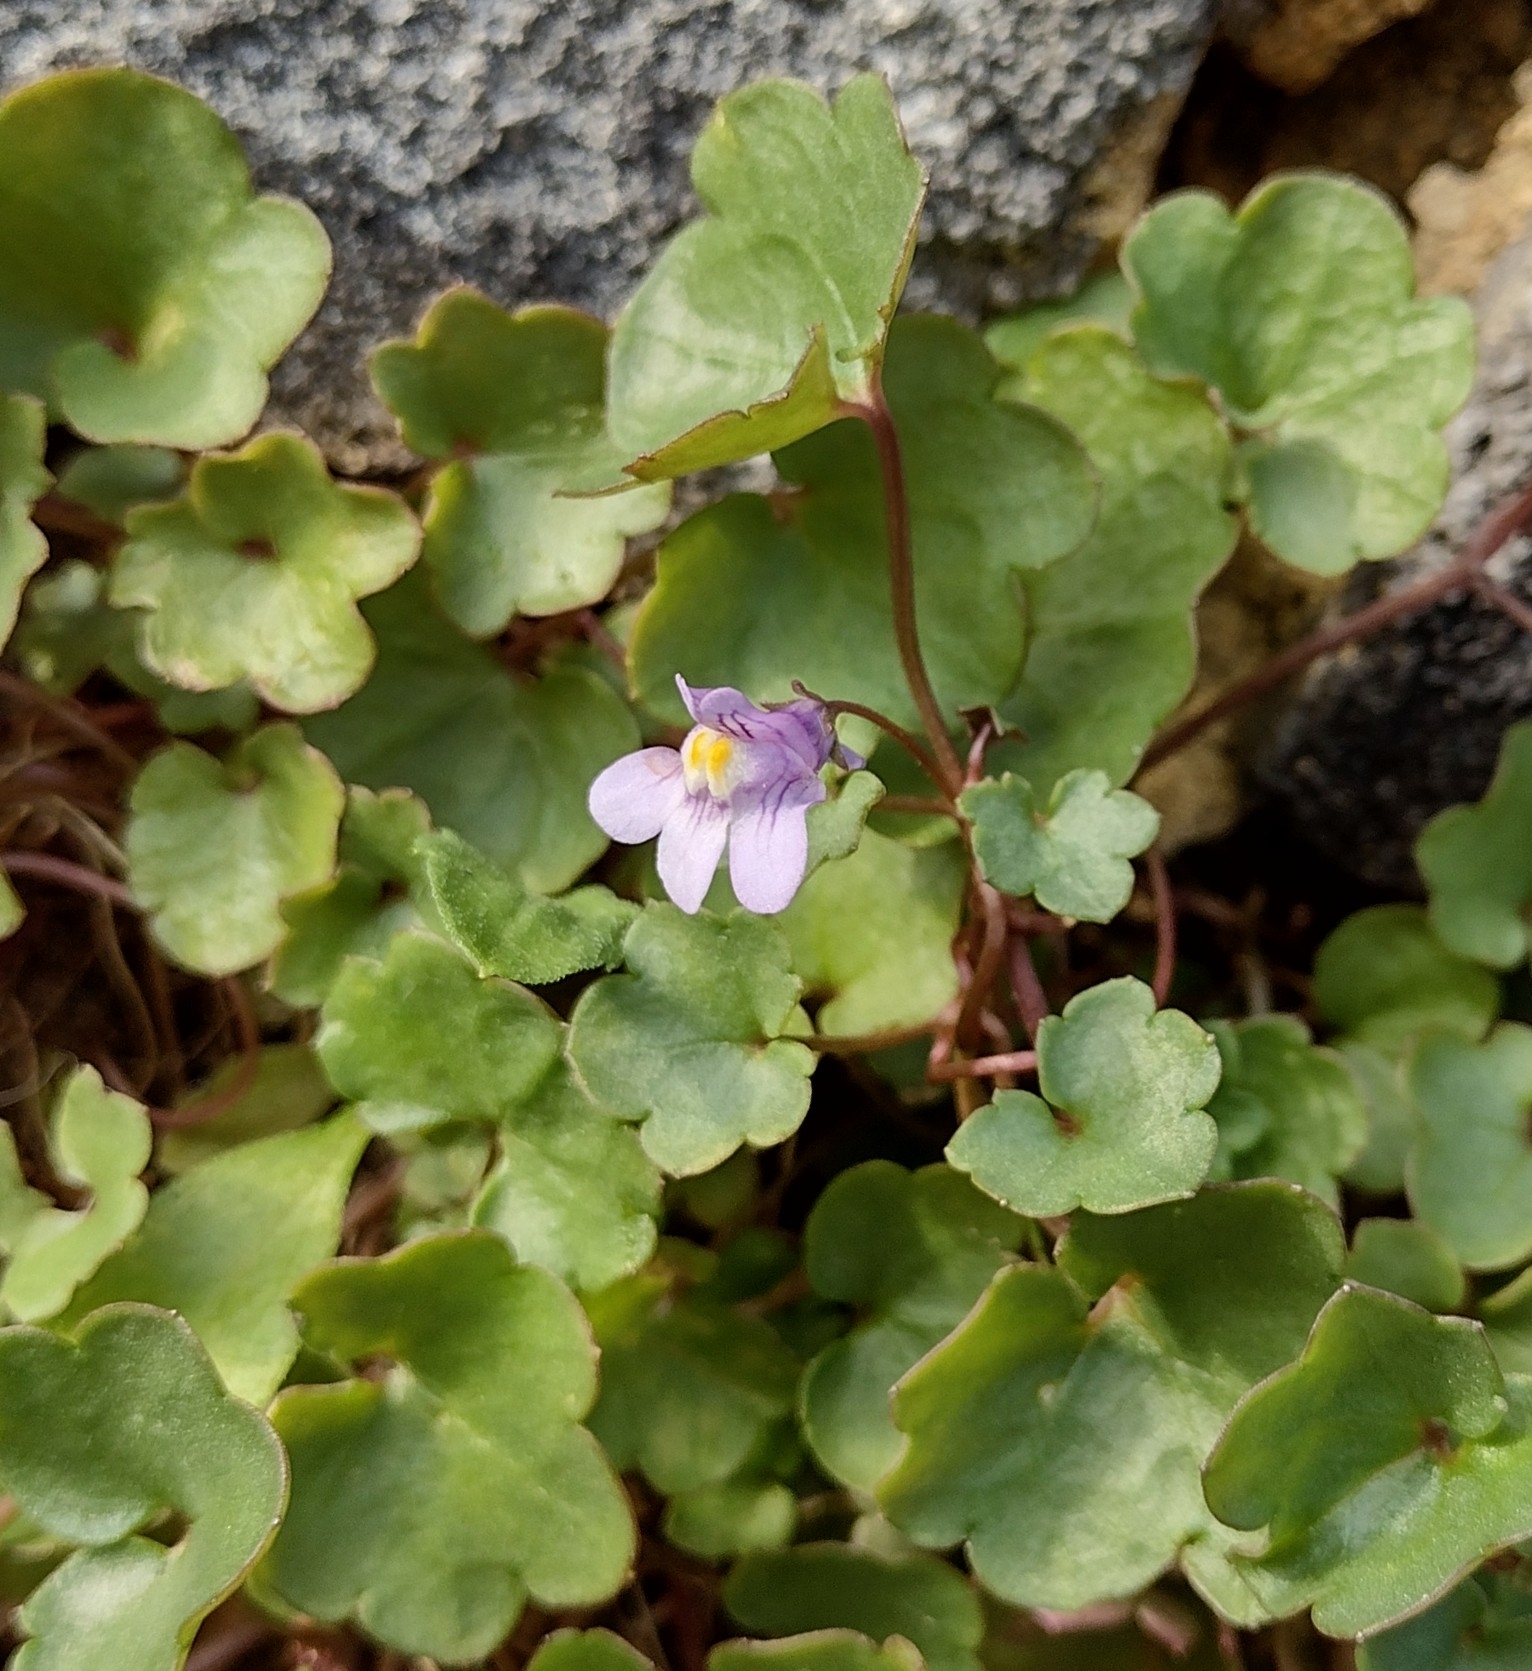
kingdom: Plantae
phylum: Tracheophyta
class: Magnoliopsida
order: Lamiales
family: Plantaginaceae
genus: Cymbalaria
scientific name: Cymbalaria muralis
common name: Ivy-leaved toadflax
